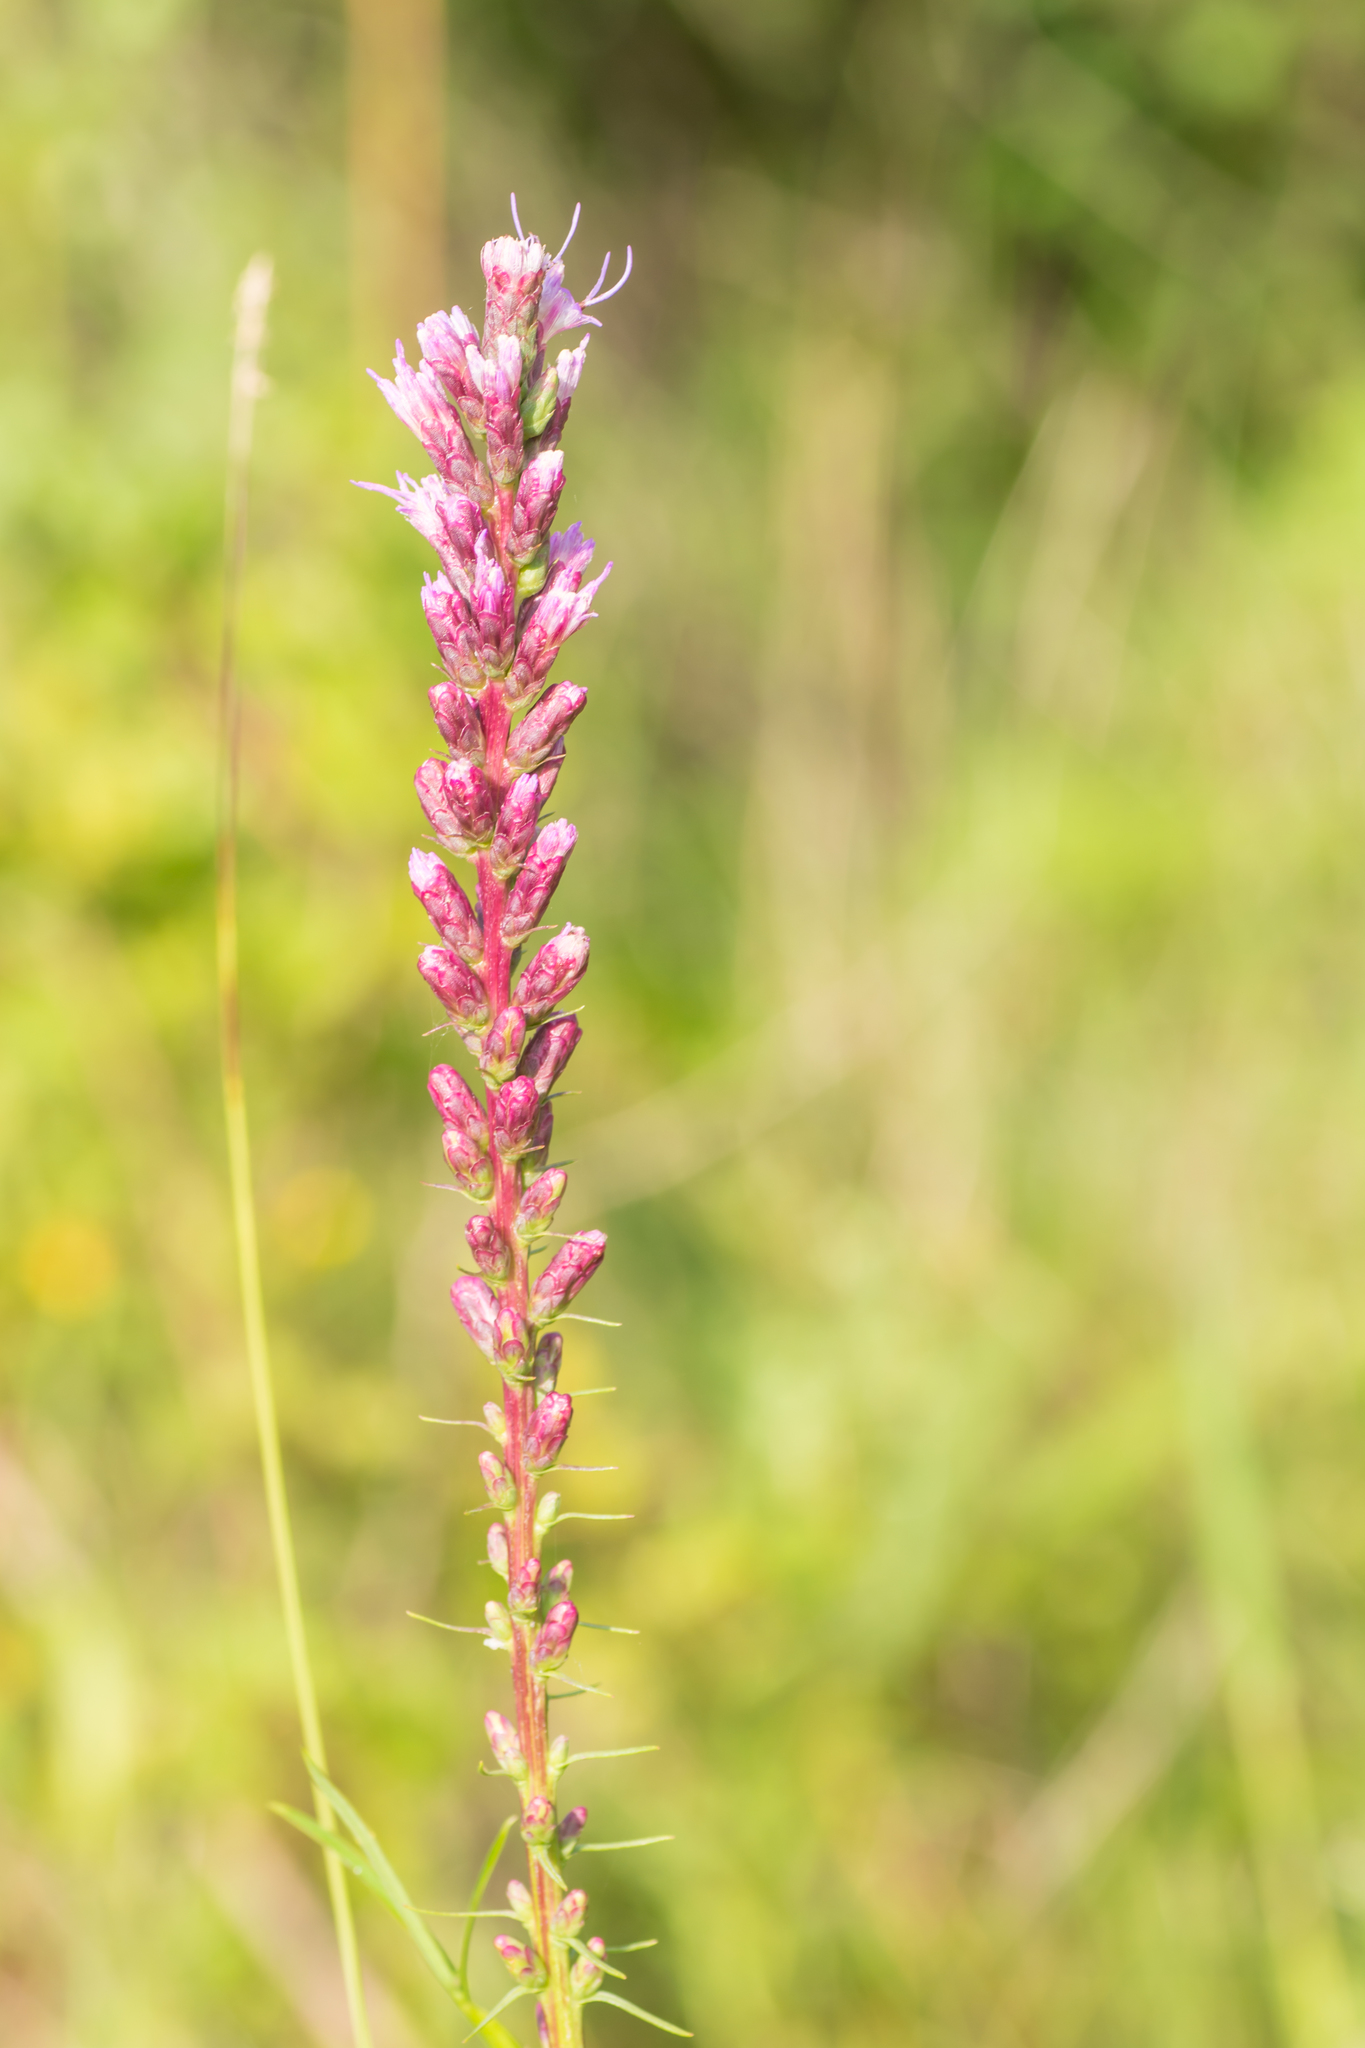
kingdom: Plantae
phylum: Tracheophyta
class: Magnoliopsida
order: Asterales
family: Asteraceae
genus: Liatris
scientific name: Liatris spicata
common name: Florist gayfeather
